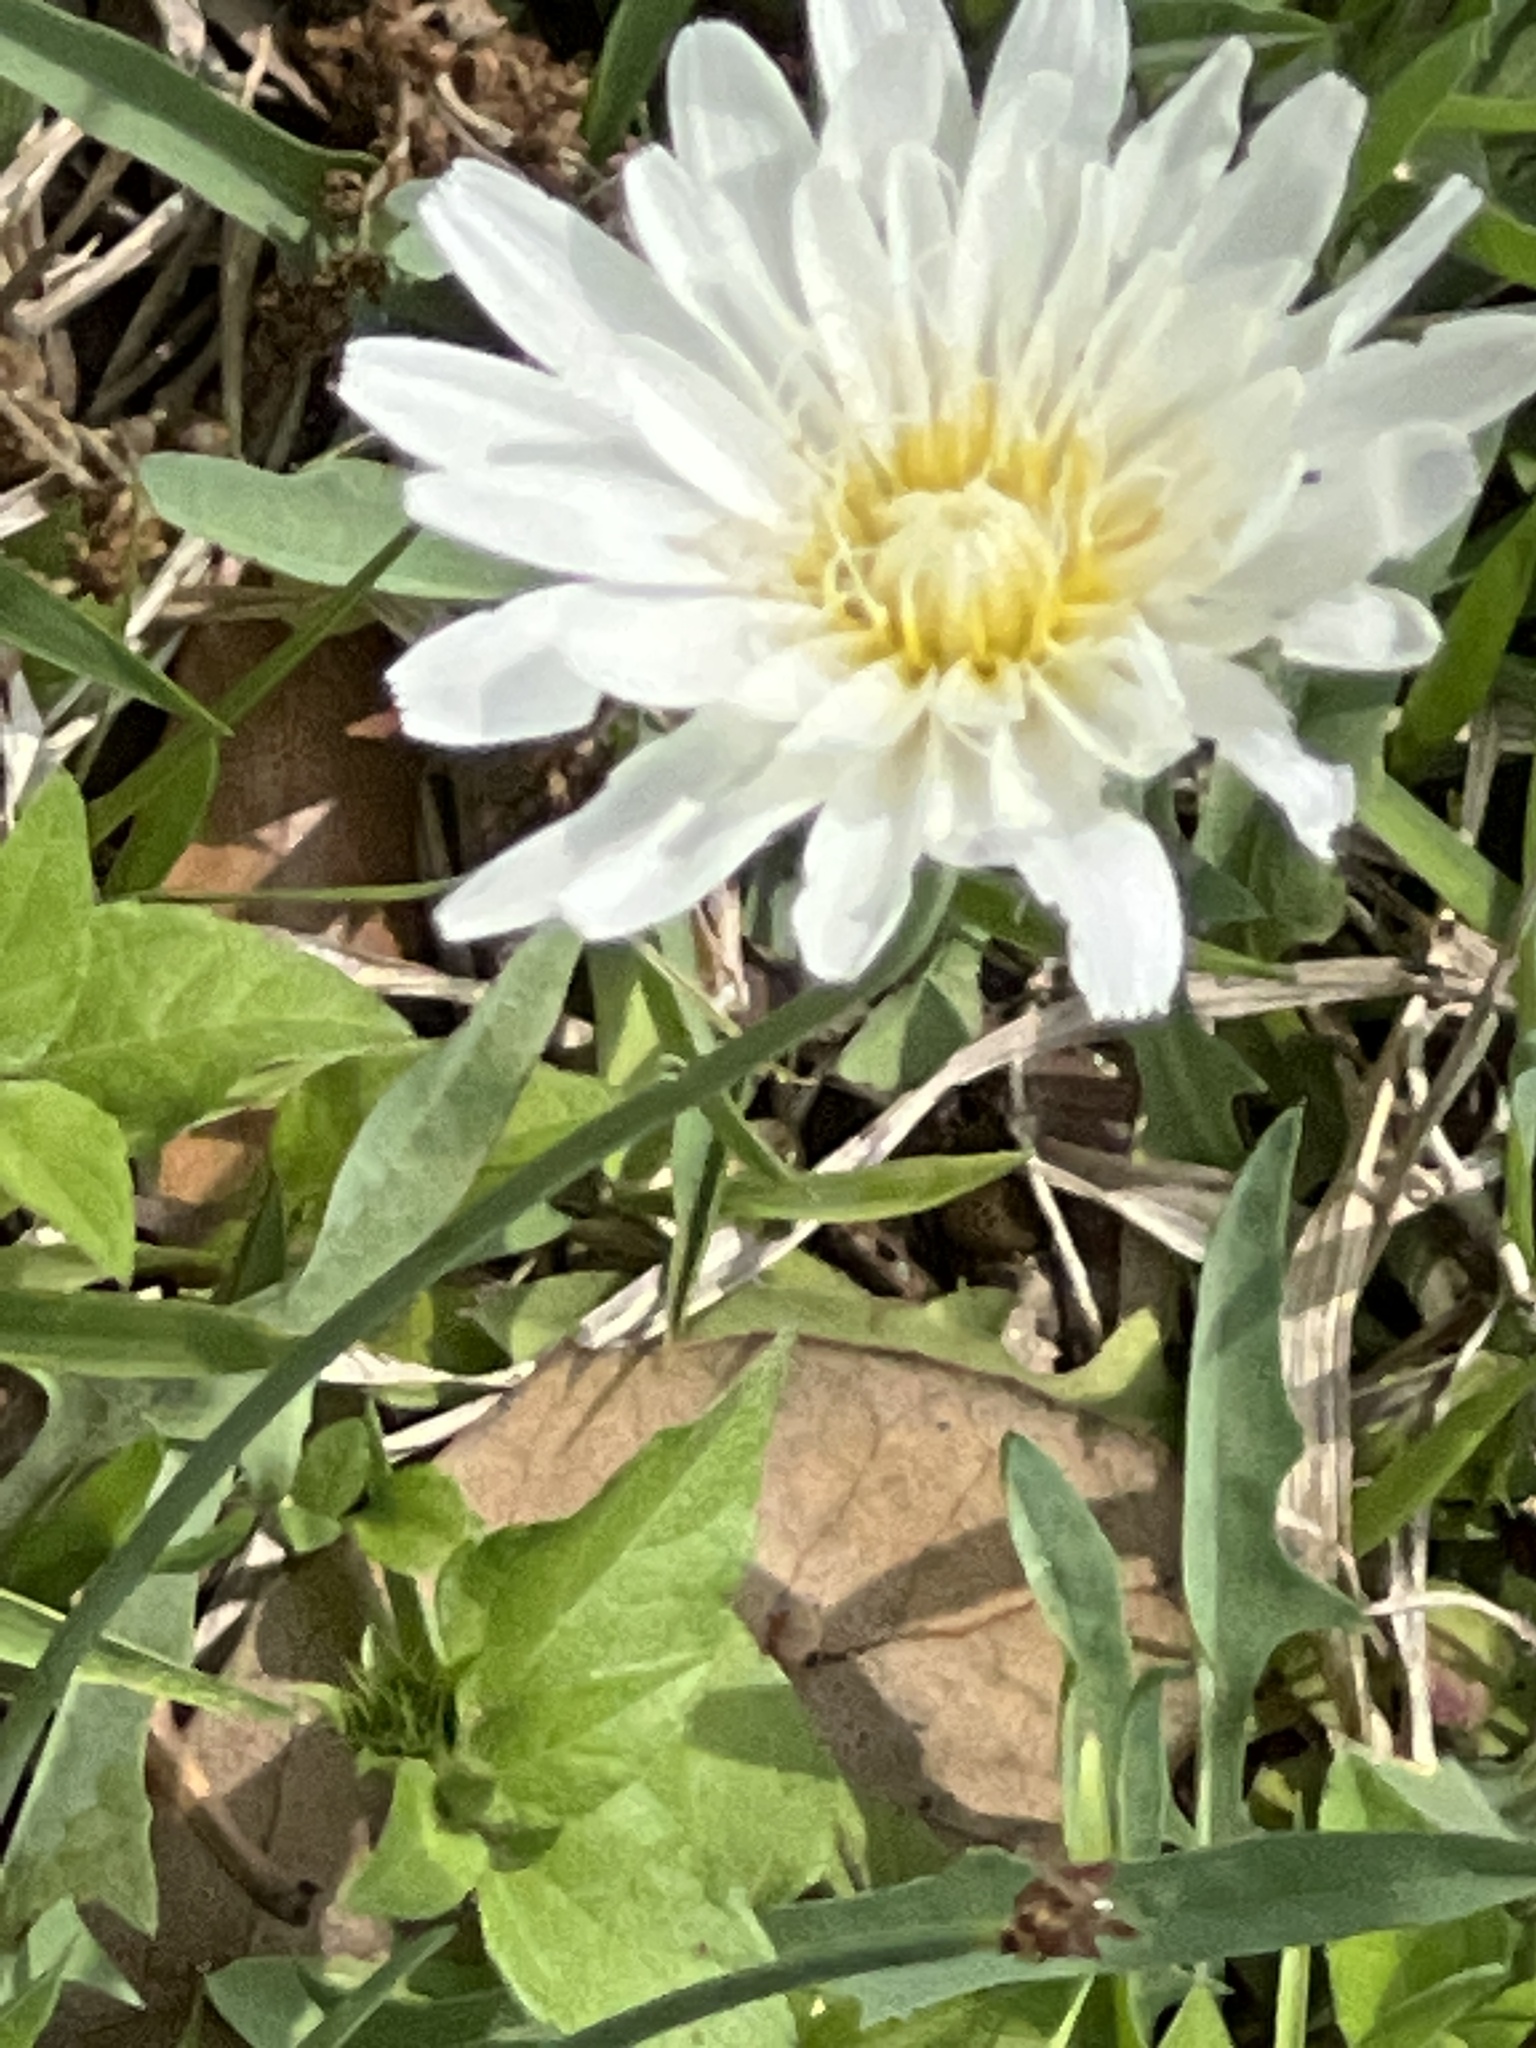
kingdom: Plantae
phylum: Tracheophyta
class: Magnoliopsida
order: Asterales
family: Asteraceae
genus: Pinaropappus
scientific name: Pinaropappus roseus
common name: Rock-lettuce
